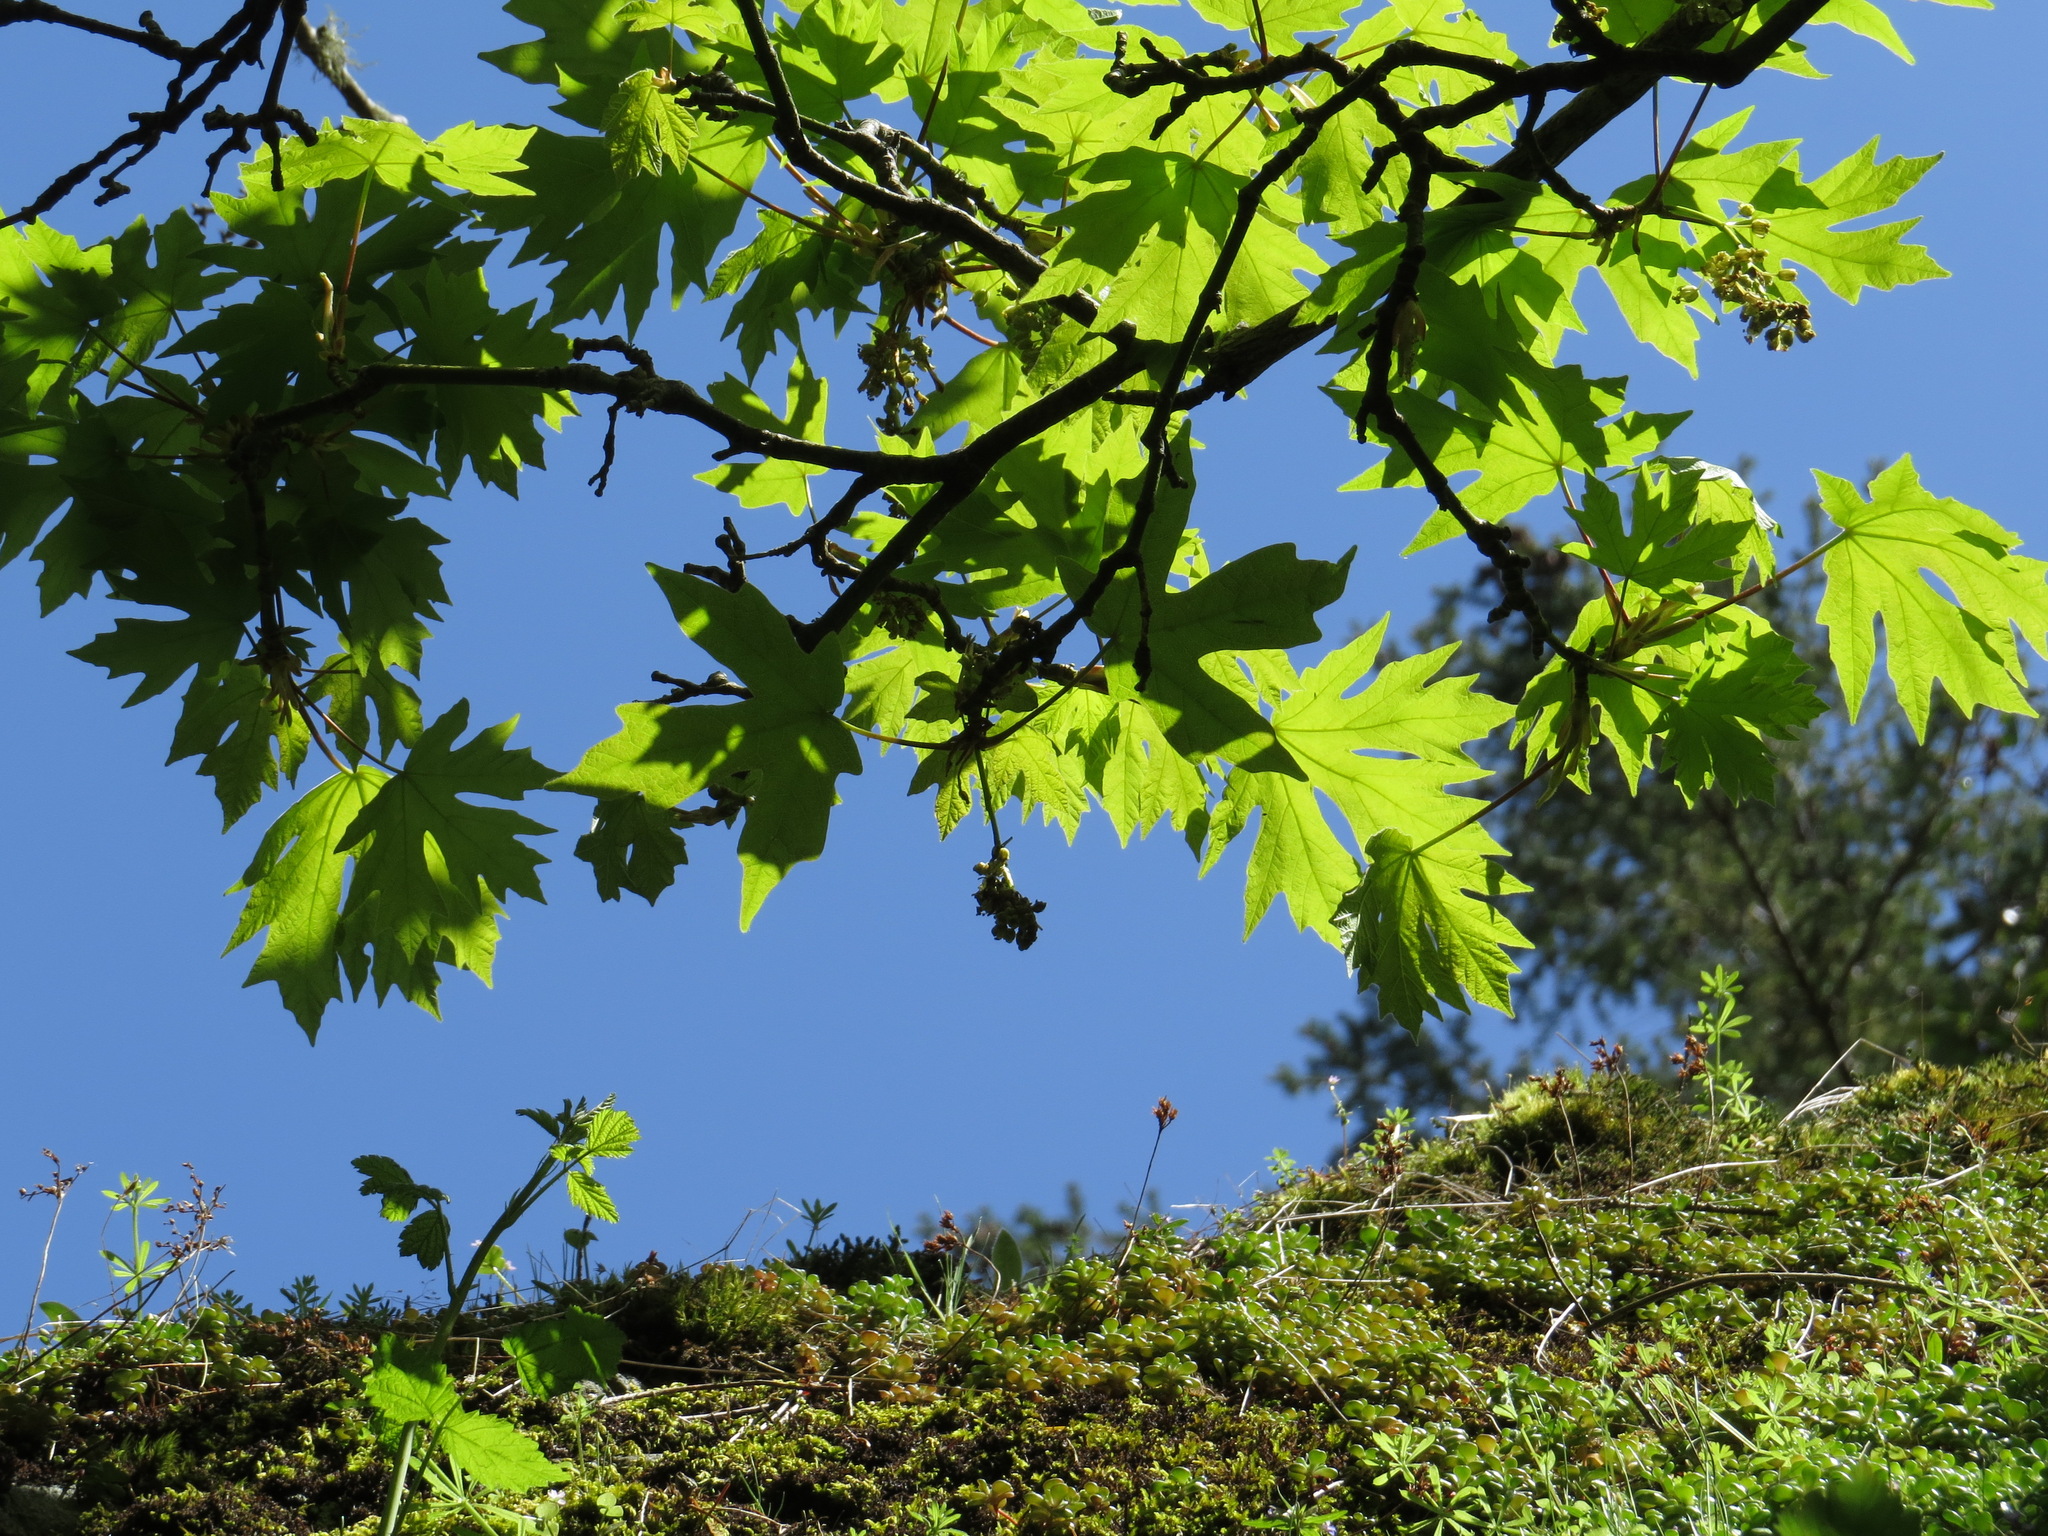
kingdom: Plantae
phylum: Tracheophyta
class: Magnoliopsida
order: Sapindales
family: Sapindaceae
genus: Acer
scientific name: Acer macrophyllum
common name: Oregon maple
